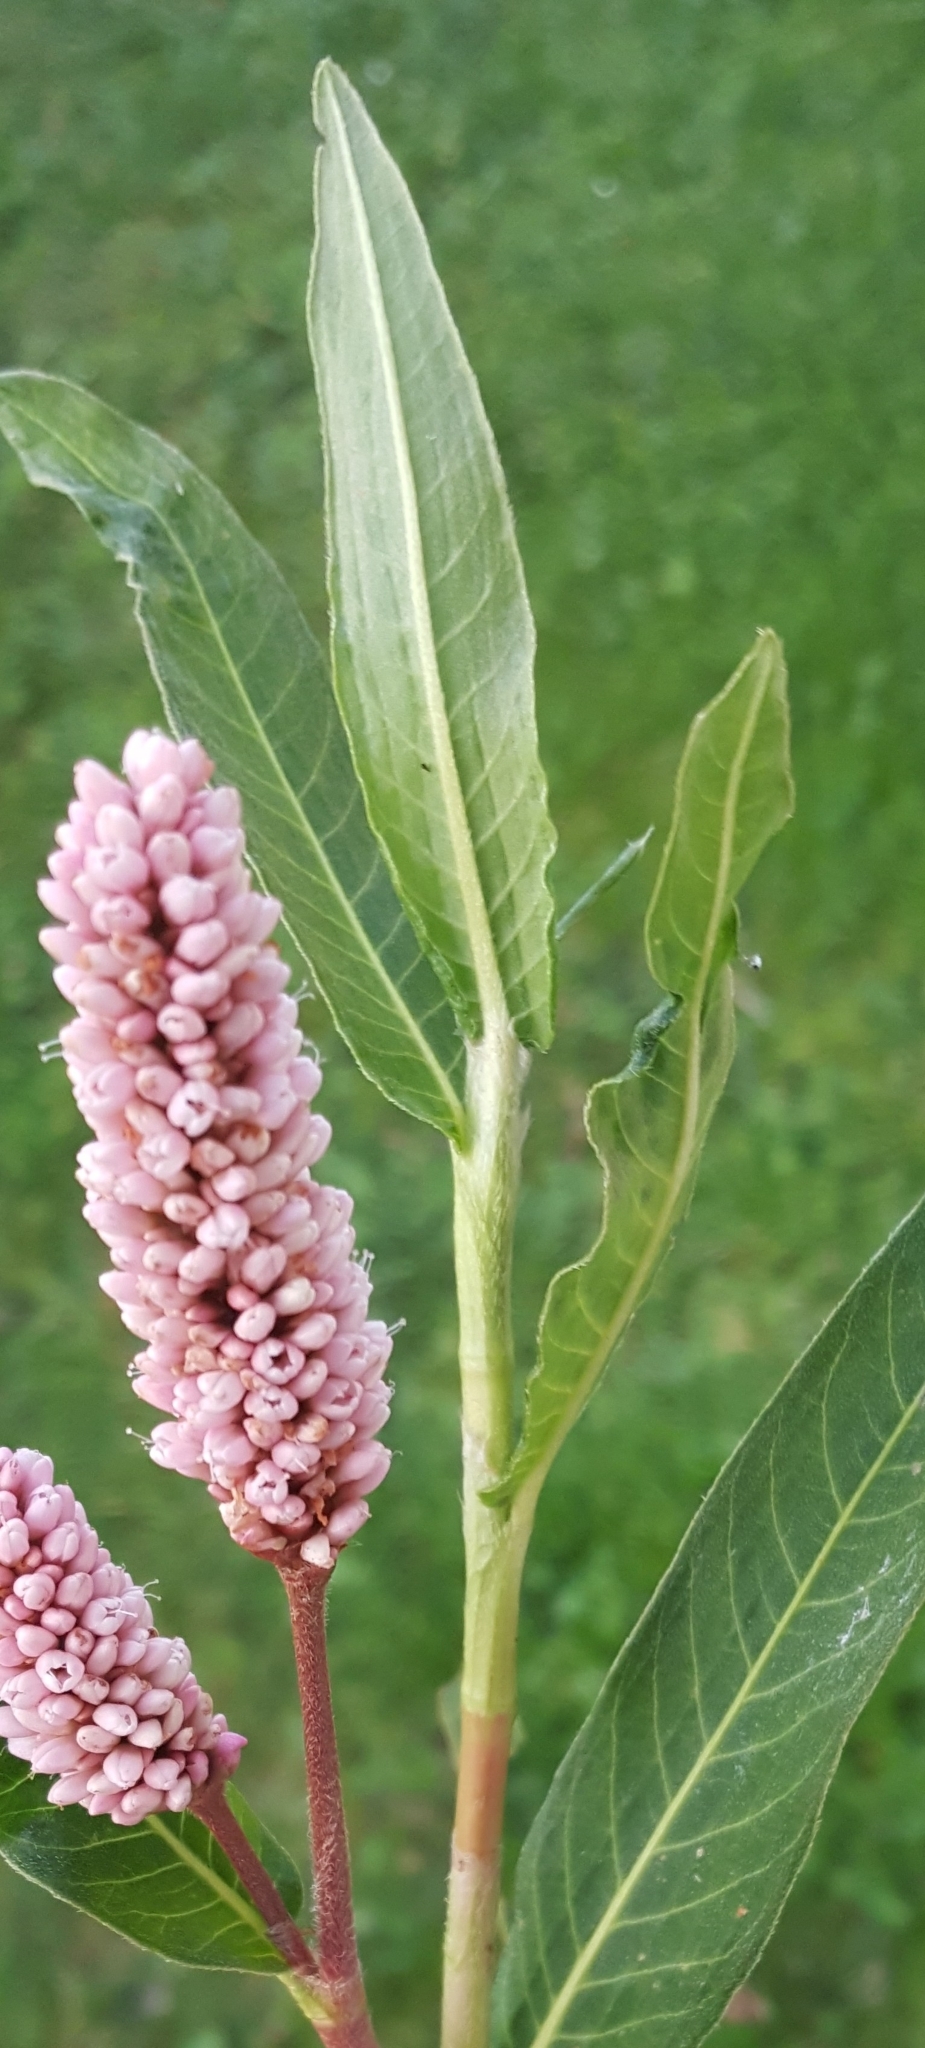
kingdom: Plantae
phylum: Tracheophyta
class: Magnoliopsida
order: Caryophyllales
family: Polygonaceae
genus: Persicaria
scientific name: Persicaria amphibia
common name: Amphibious bistort
